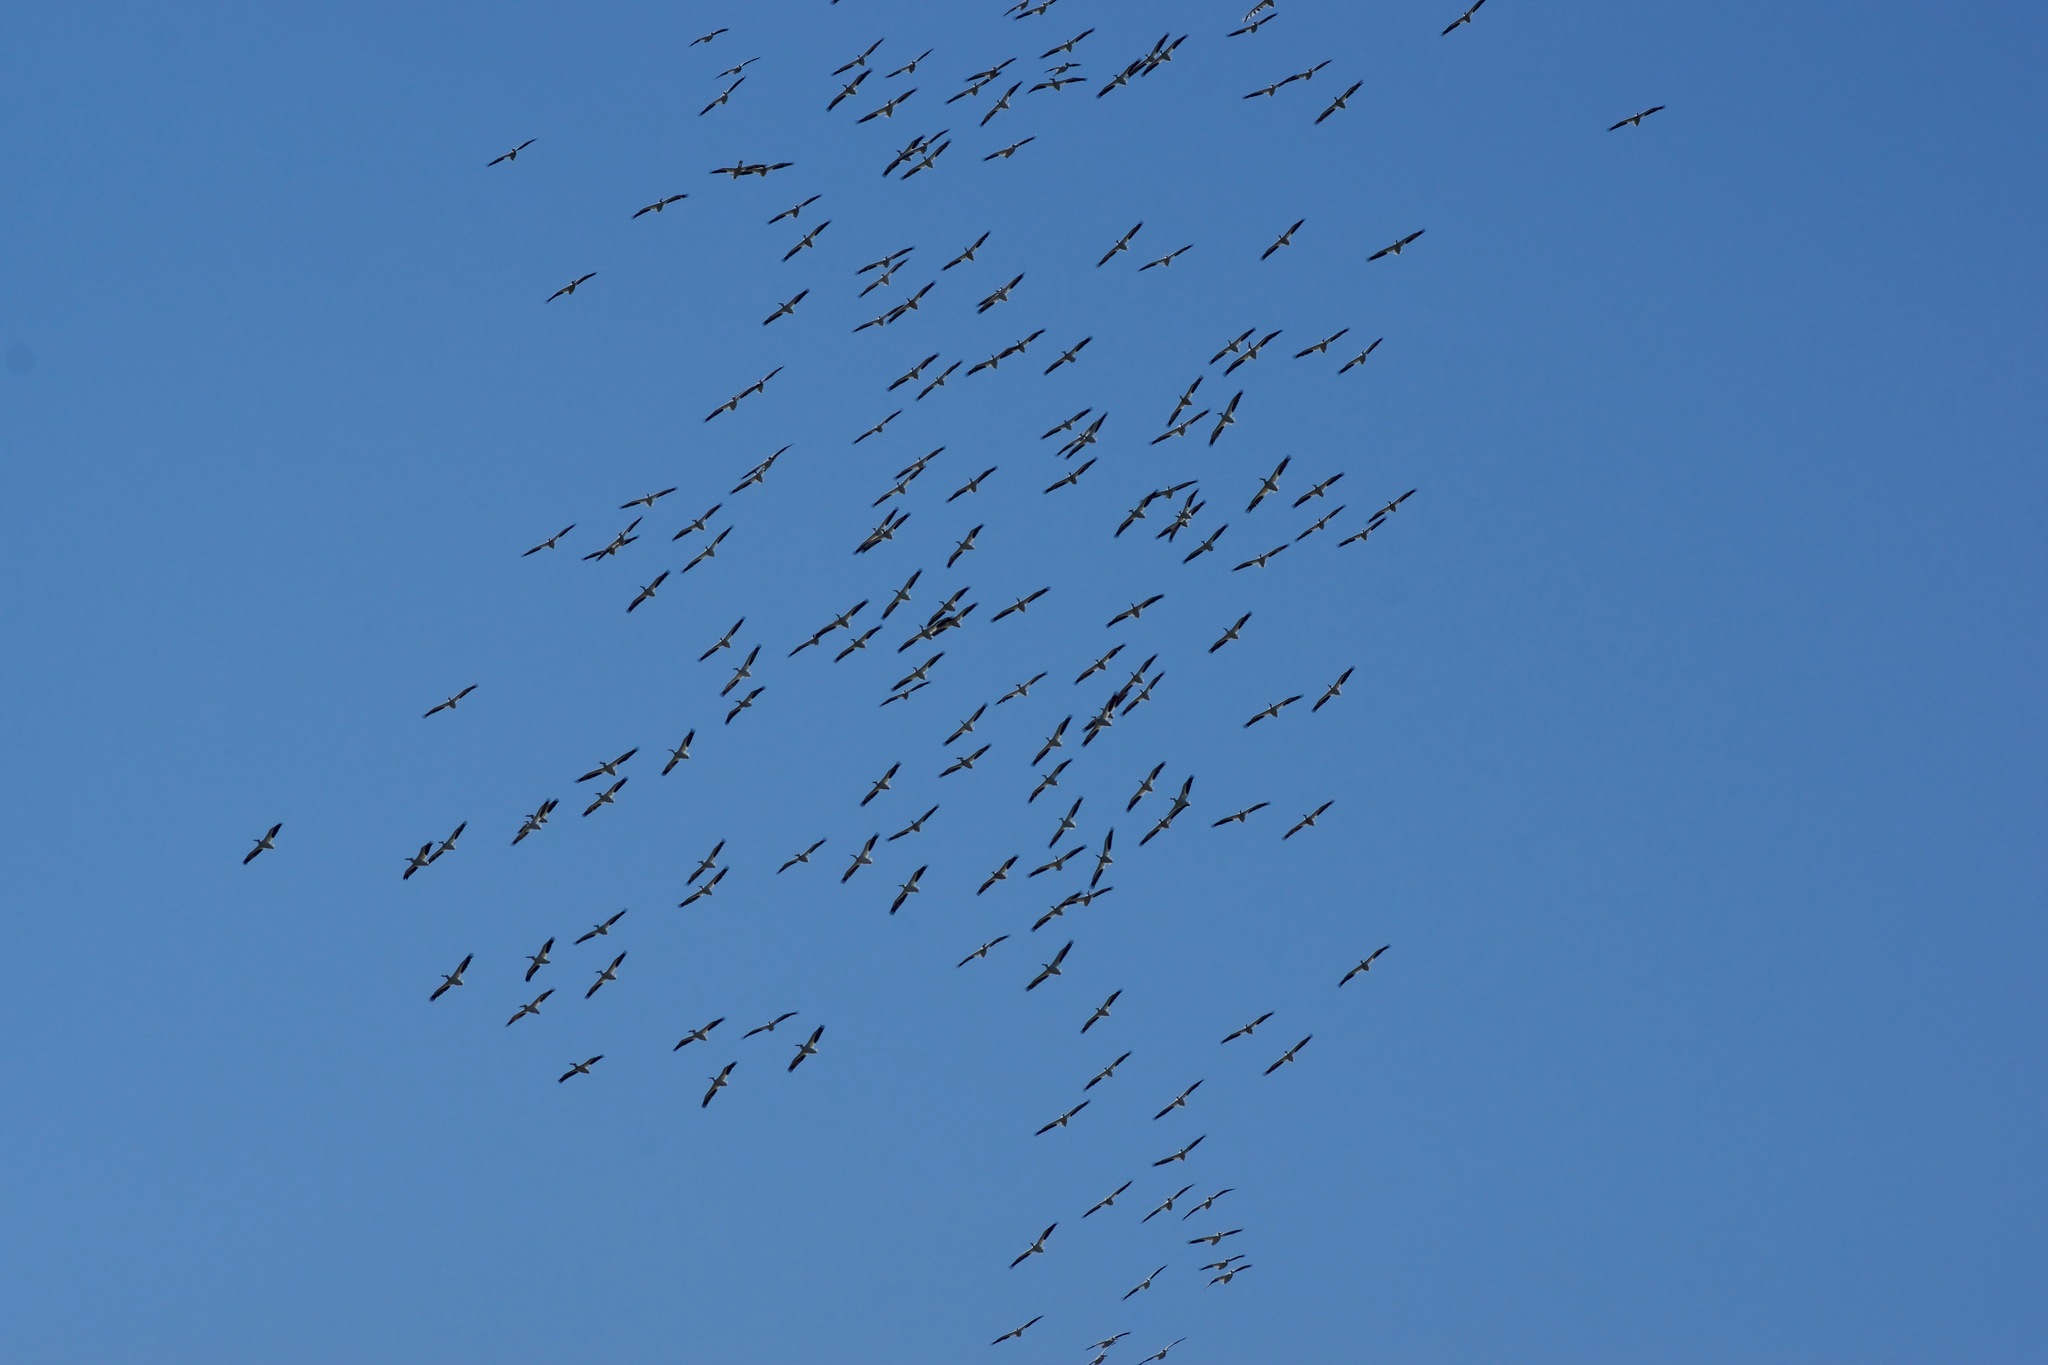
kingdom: Animalia
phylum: Chordata
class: Aves
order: Pelecaniformes
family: Pelecanidae
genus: Pelecanus
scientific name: Pelecanus erythrorhynchos
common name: American white pelican
